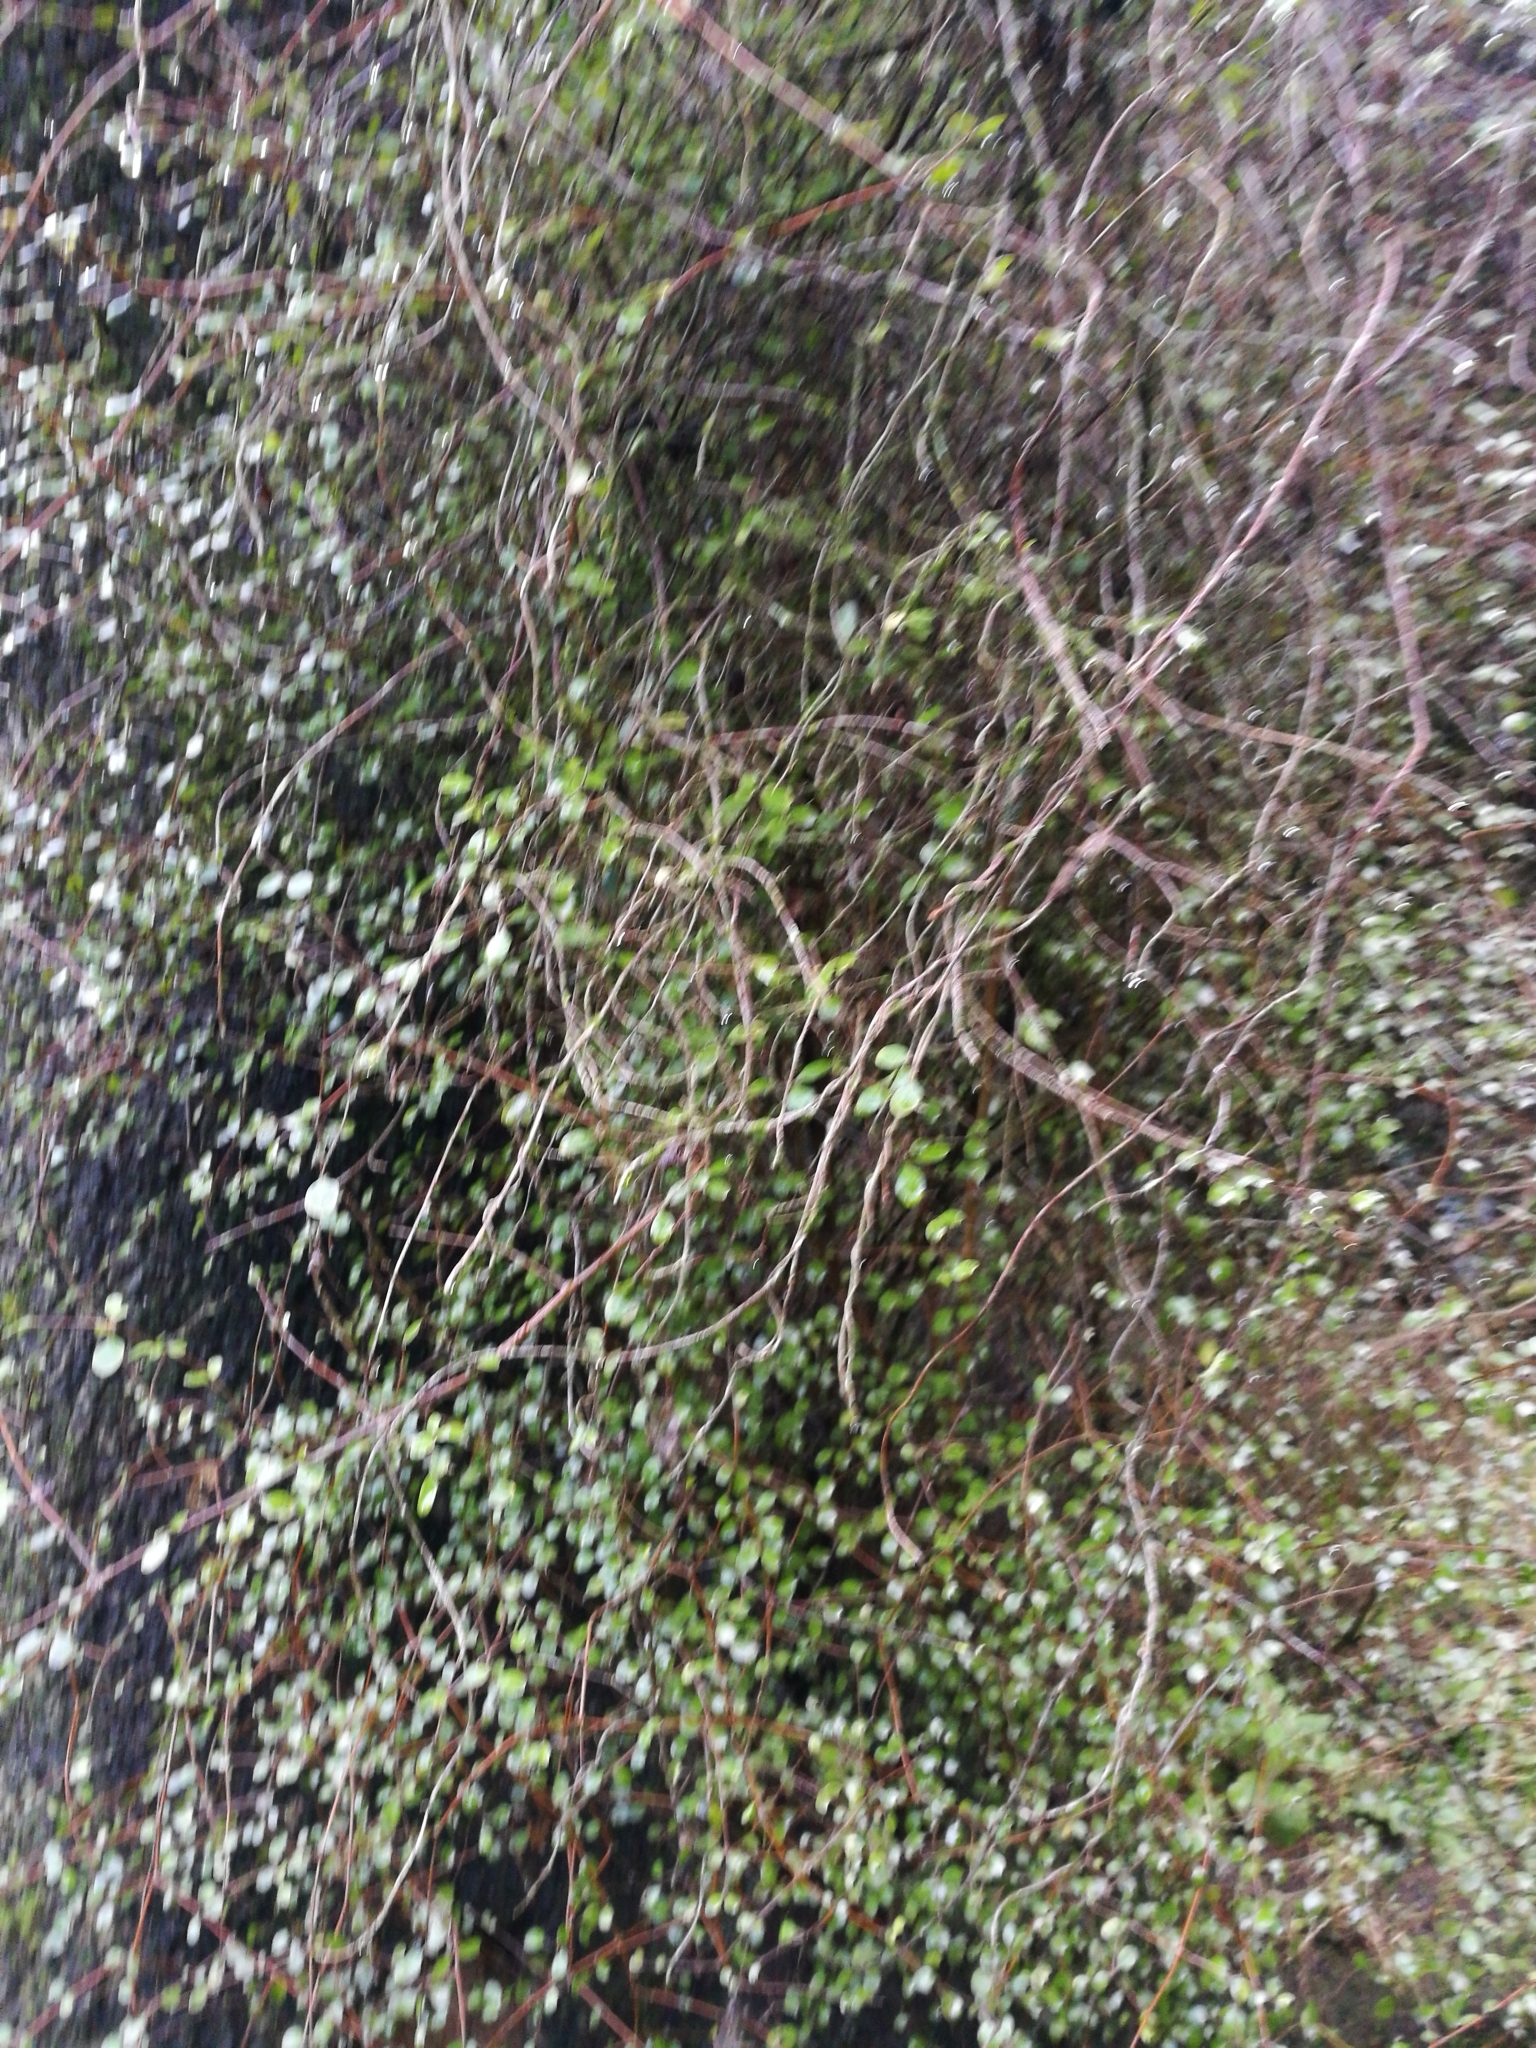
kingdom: Plantae
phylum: Tracheophyta
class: Magnoliopsida
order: Gentianales
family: Rubiaceae
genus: Coprosma
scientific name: Coprosma rigida
